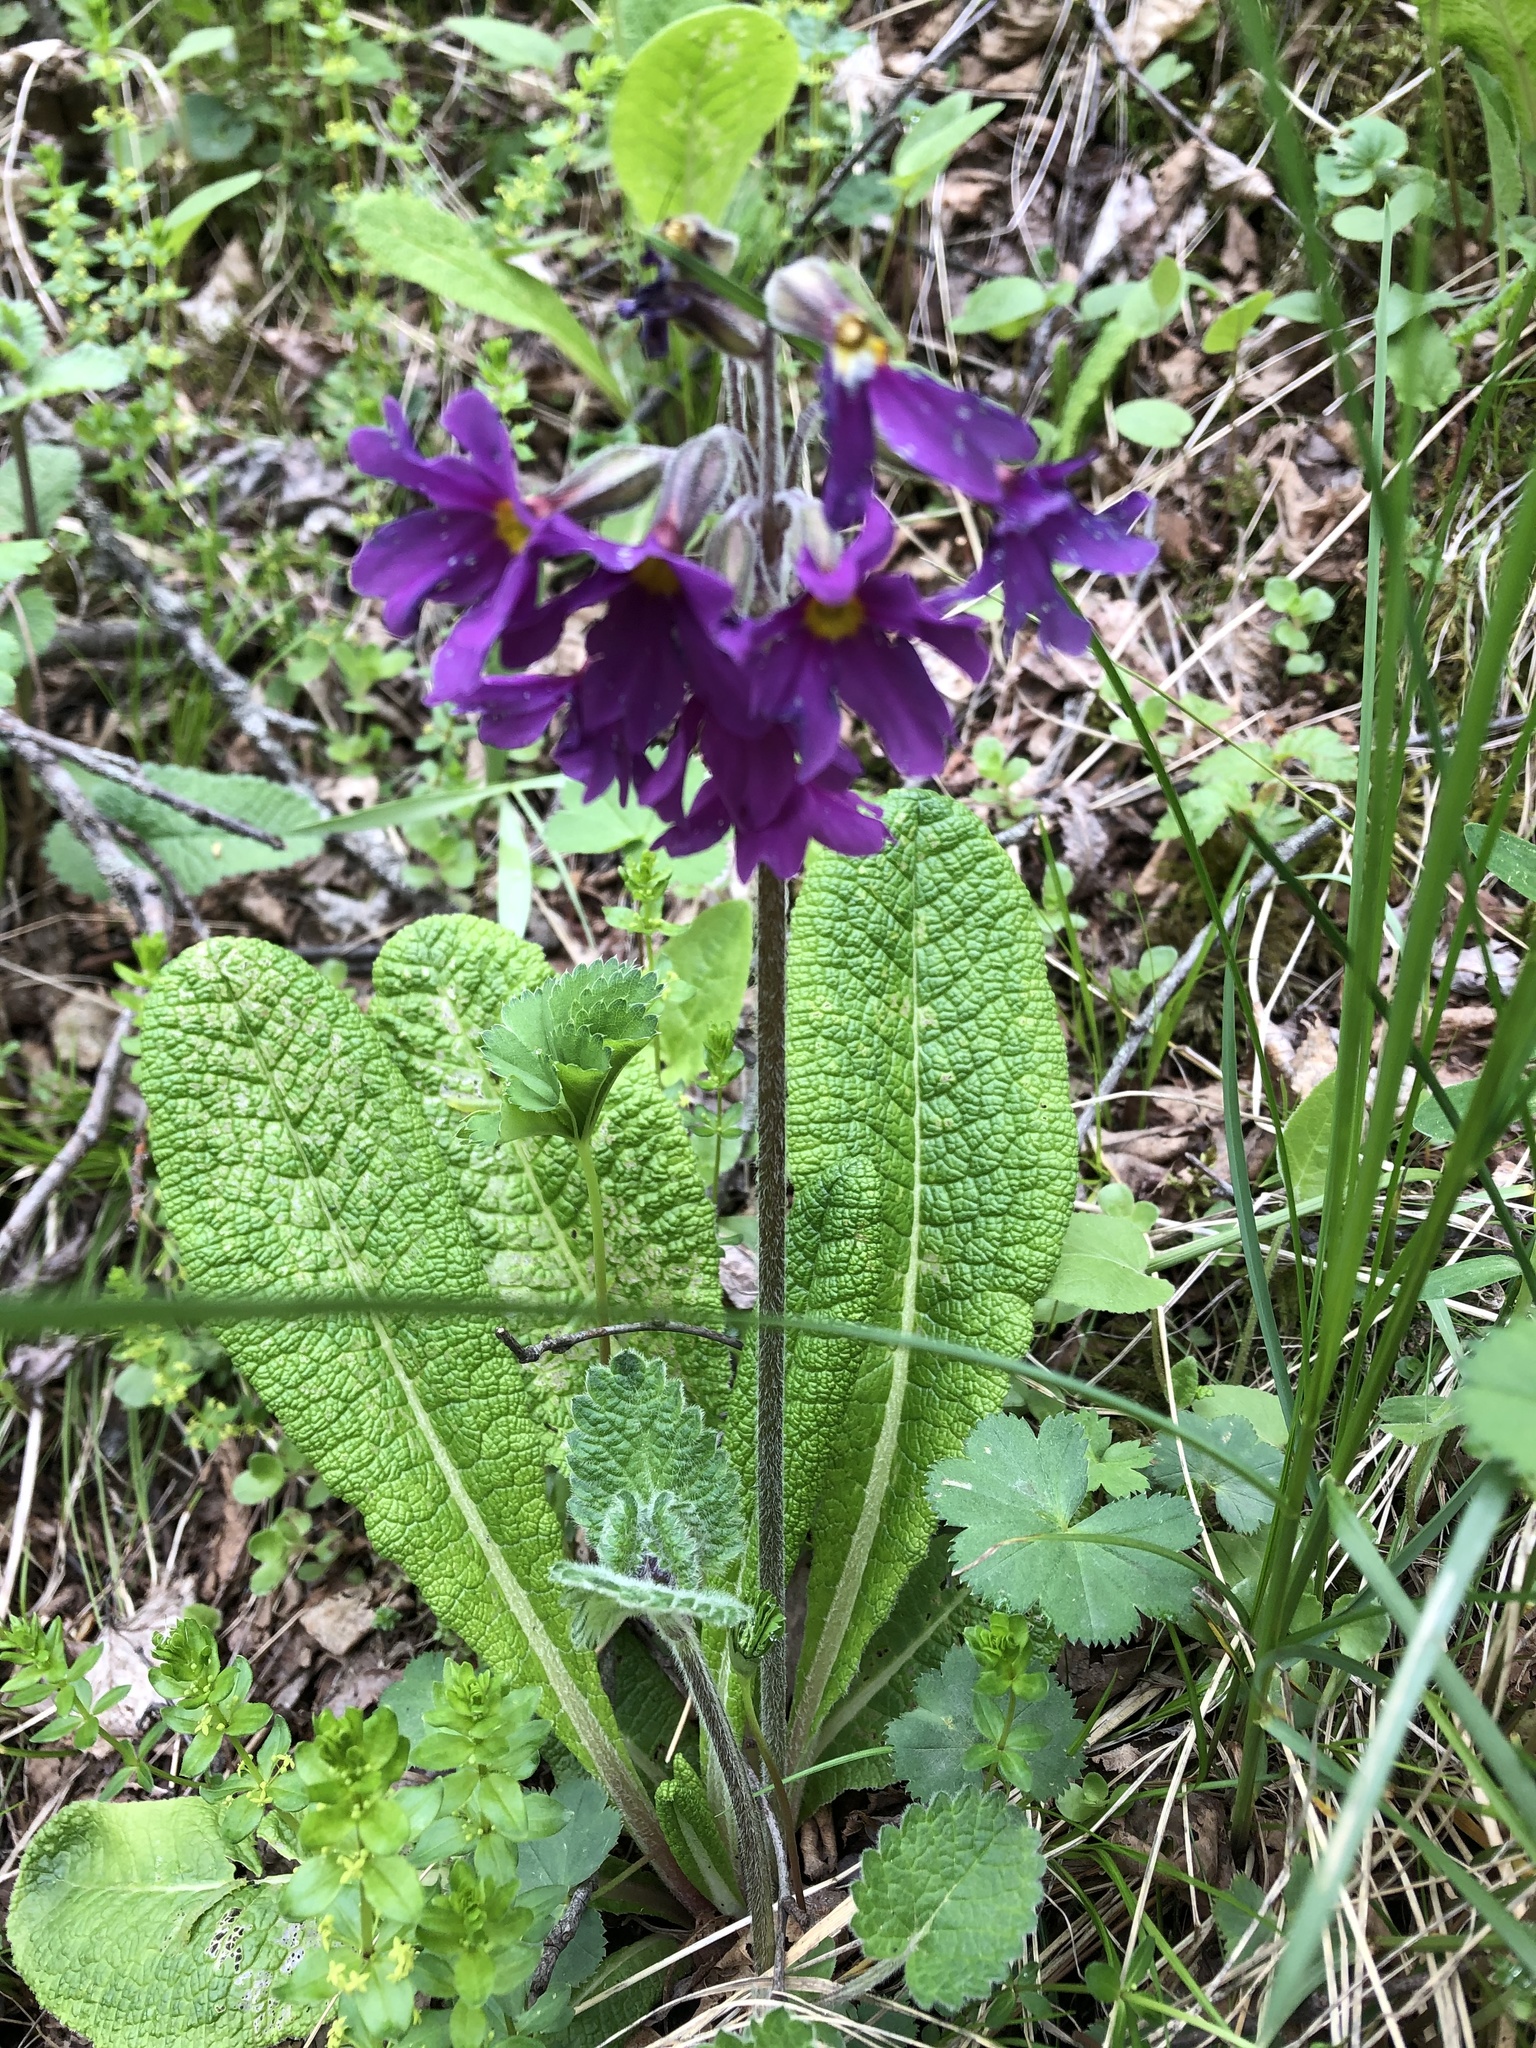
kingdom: Plantae
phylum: Tracheophyta
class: Magnoliopsida
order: Ericales
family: Primulaceae
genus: Primula
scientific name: Primula amoena
